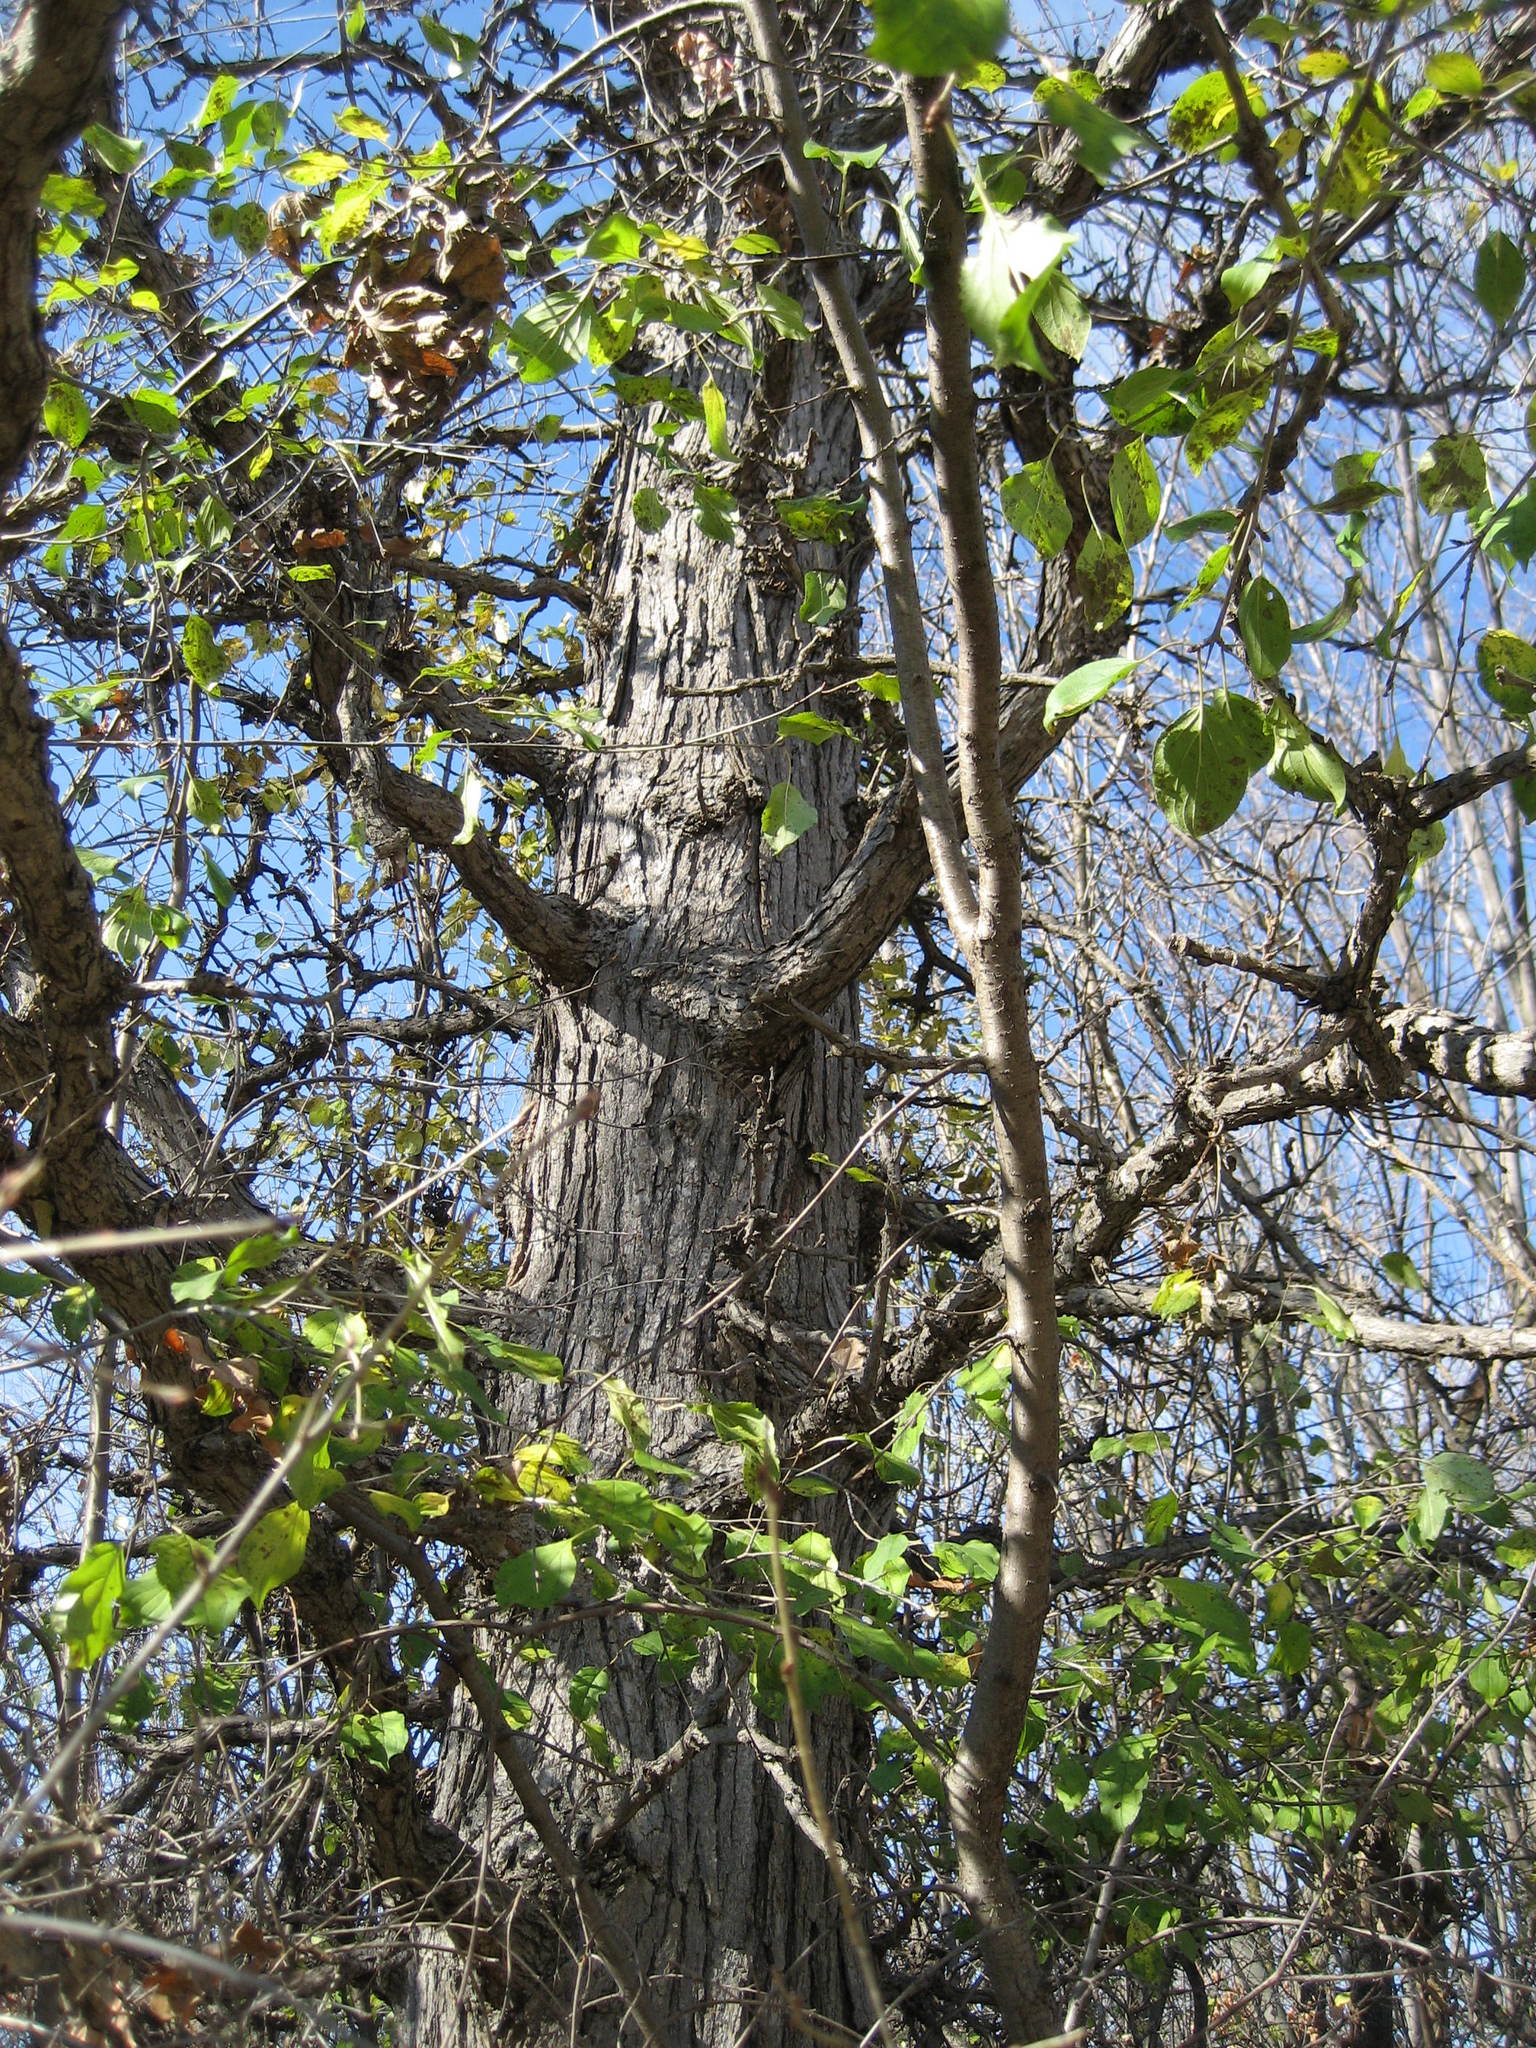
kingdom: Plantae
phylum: Tracheophyta
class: Magnoliopsida
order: Fagales
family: Fagaceae
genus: Quercus
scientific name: Quercus macrocarpa
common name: Bur oak
